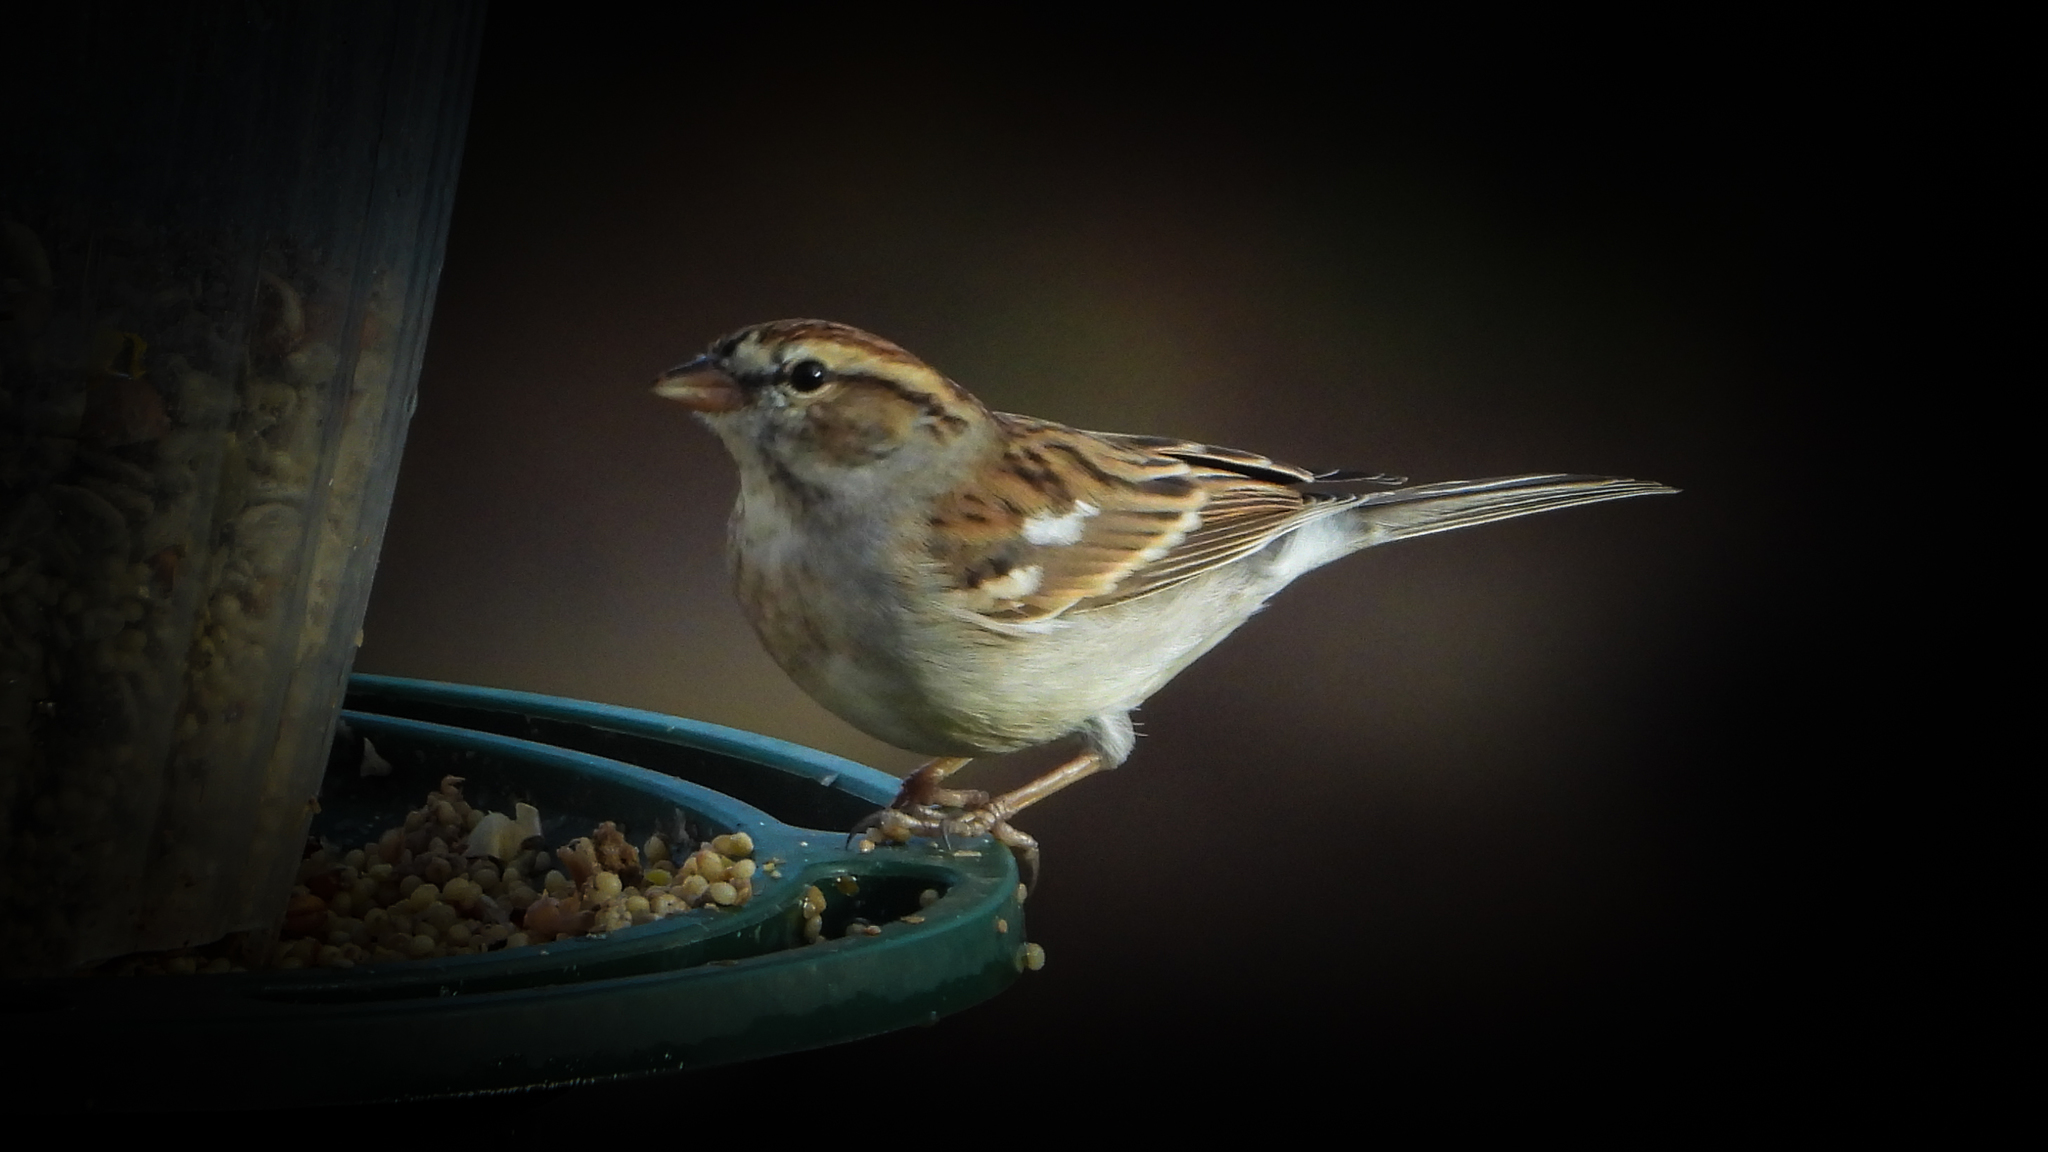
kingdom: Animalia
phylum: Chordata
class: Aves
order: Passeriformes
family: Passerellidae
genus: Spizella
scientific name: Spizella passerina
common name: Chipping sparrow
